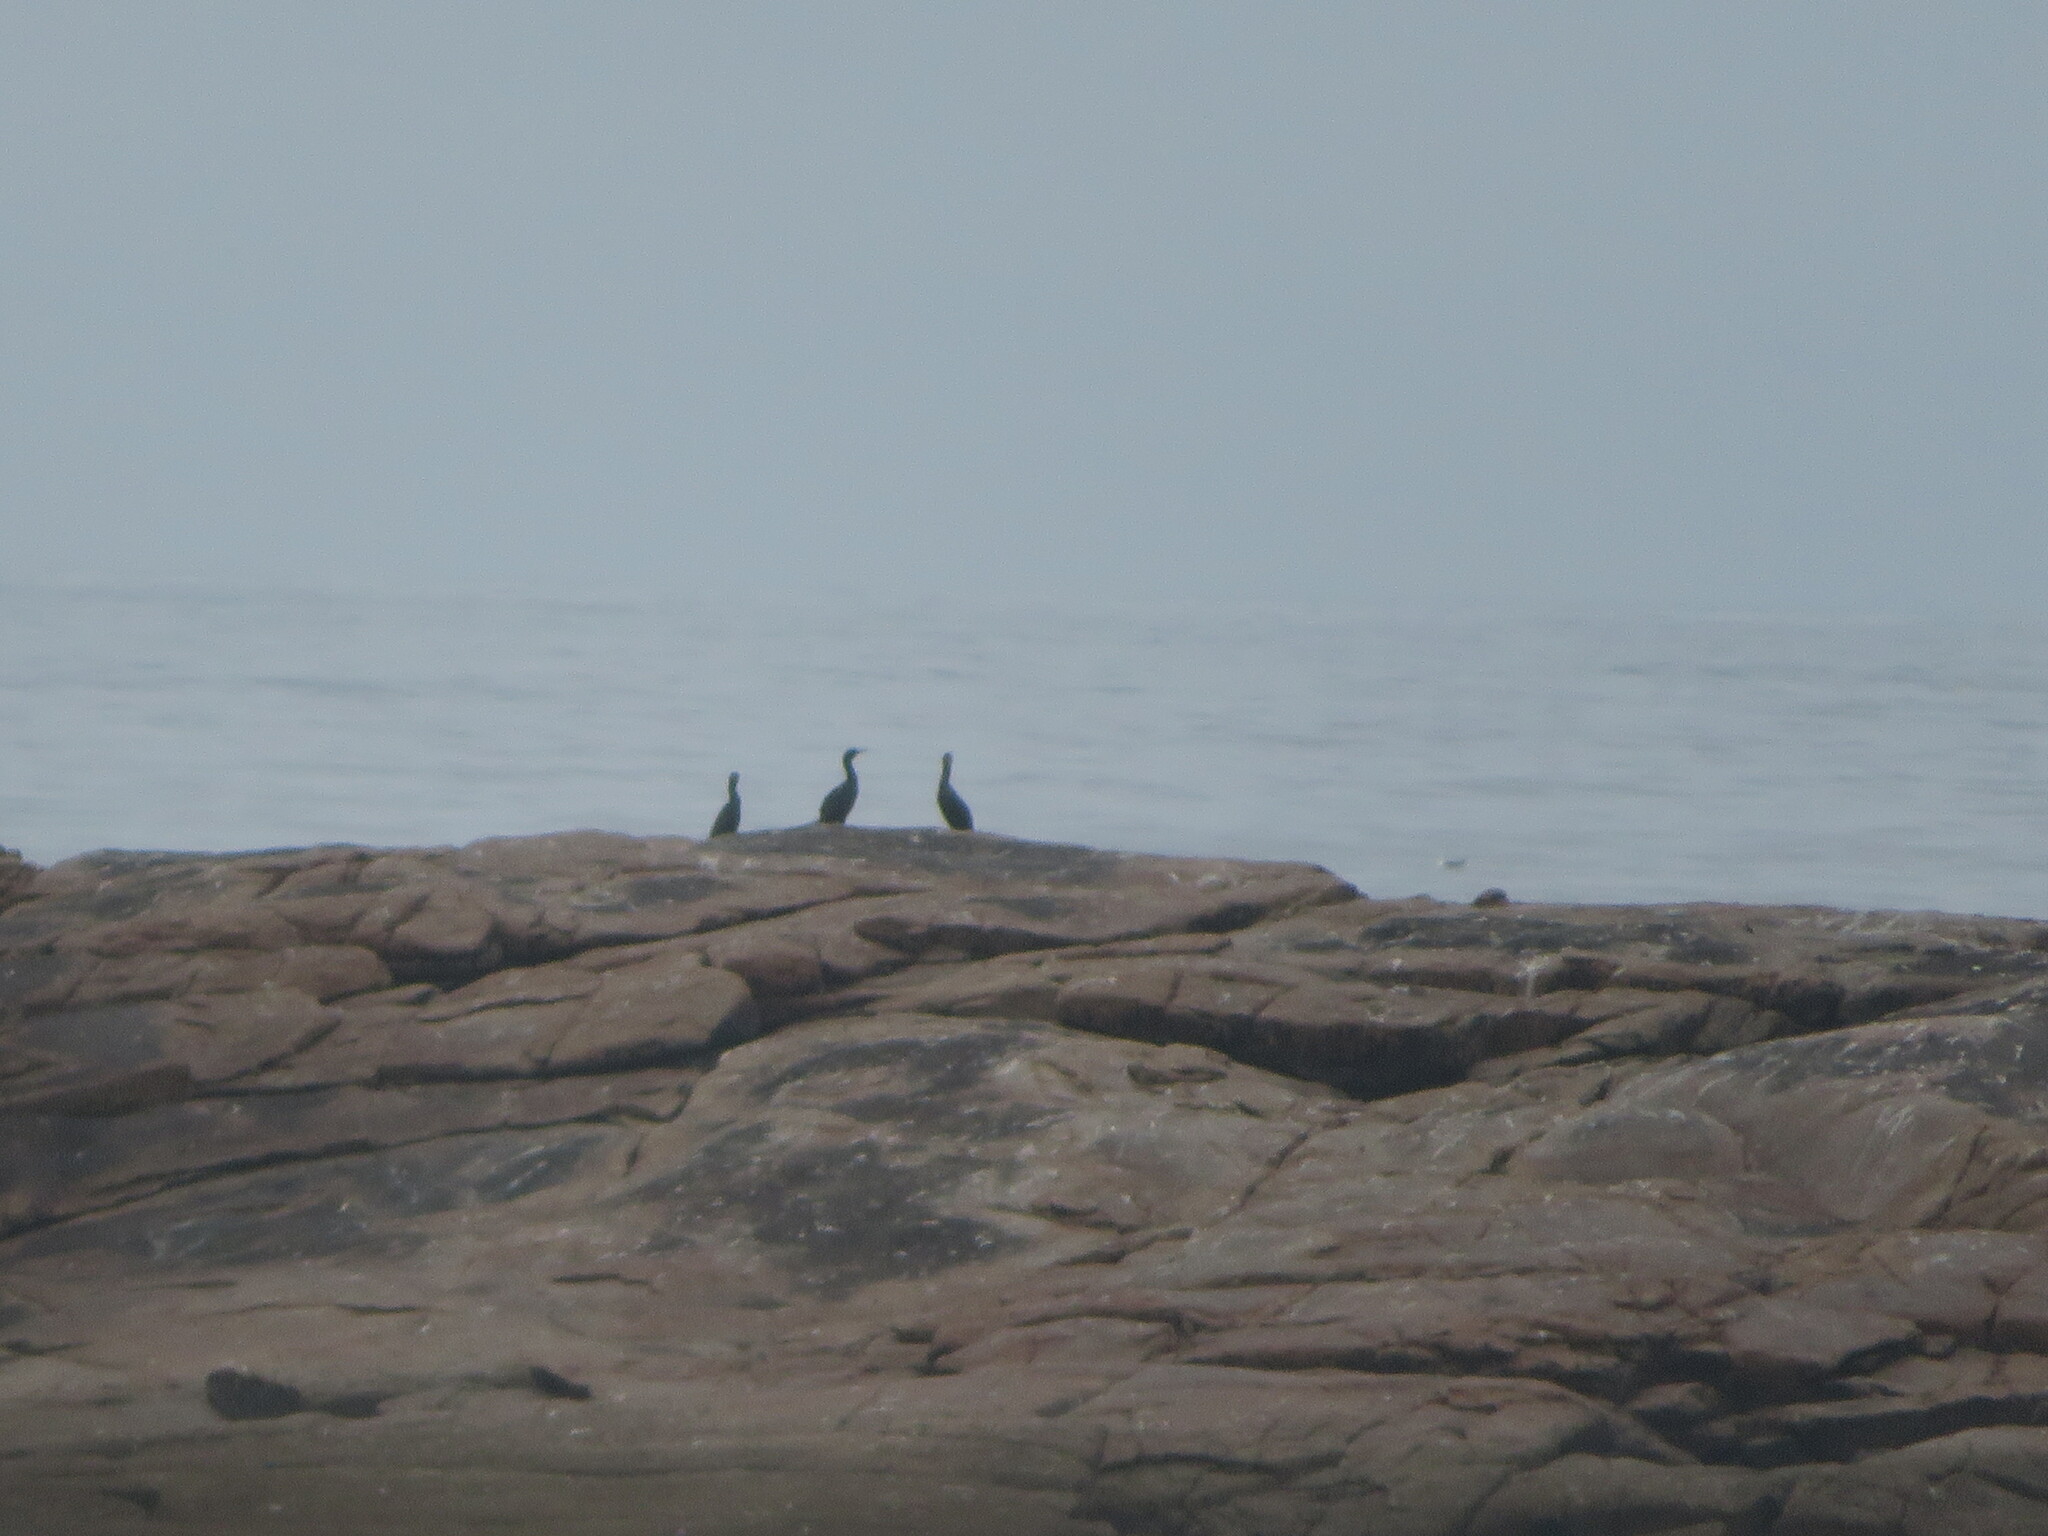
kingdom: Animalia
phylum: Chordata
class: Aves
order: Suliformes
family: Phalacrocoracidae
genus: Phalacrocorax
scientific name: Phalacrocorax aristotelis
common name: European shag
